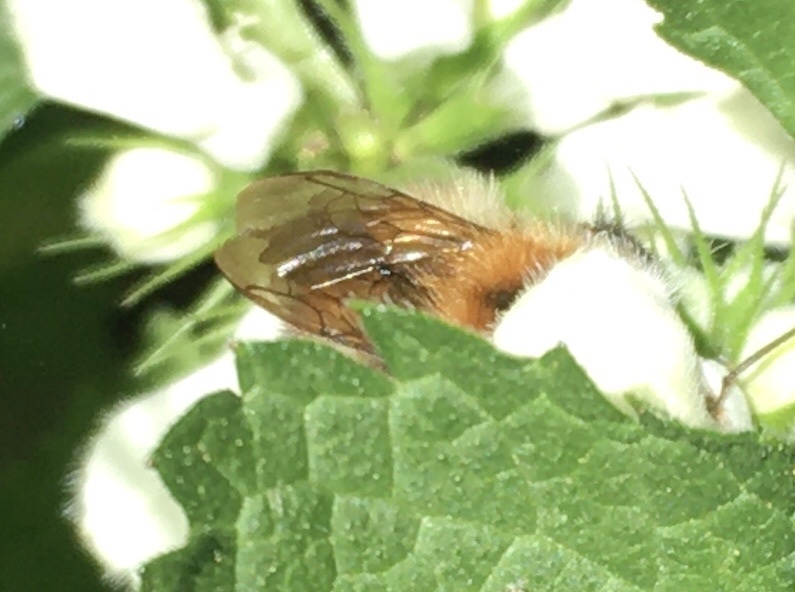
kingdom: Animalia
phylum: Arthropoda
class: Insecta
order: Hymenoptera
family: Apidae
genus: Bombus
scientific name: Bombus pascuorum
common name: Common carder bee
